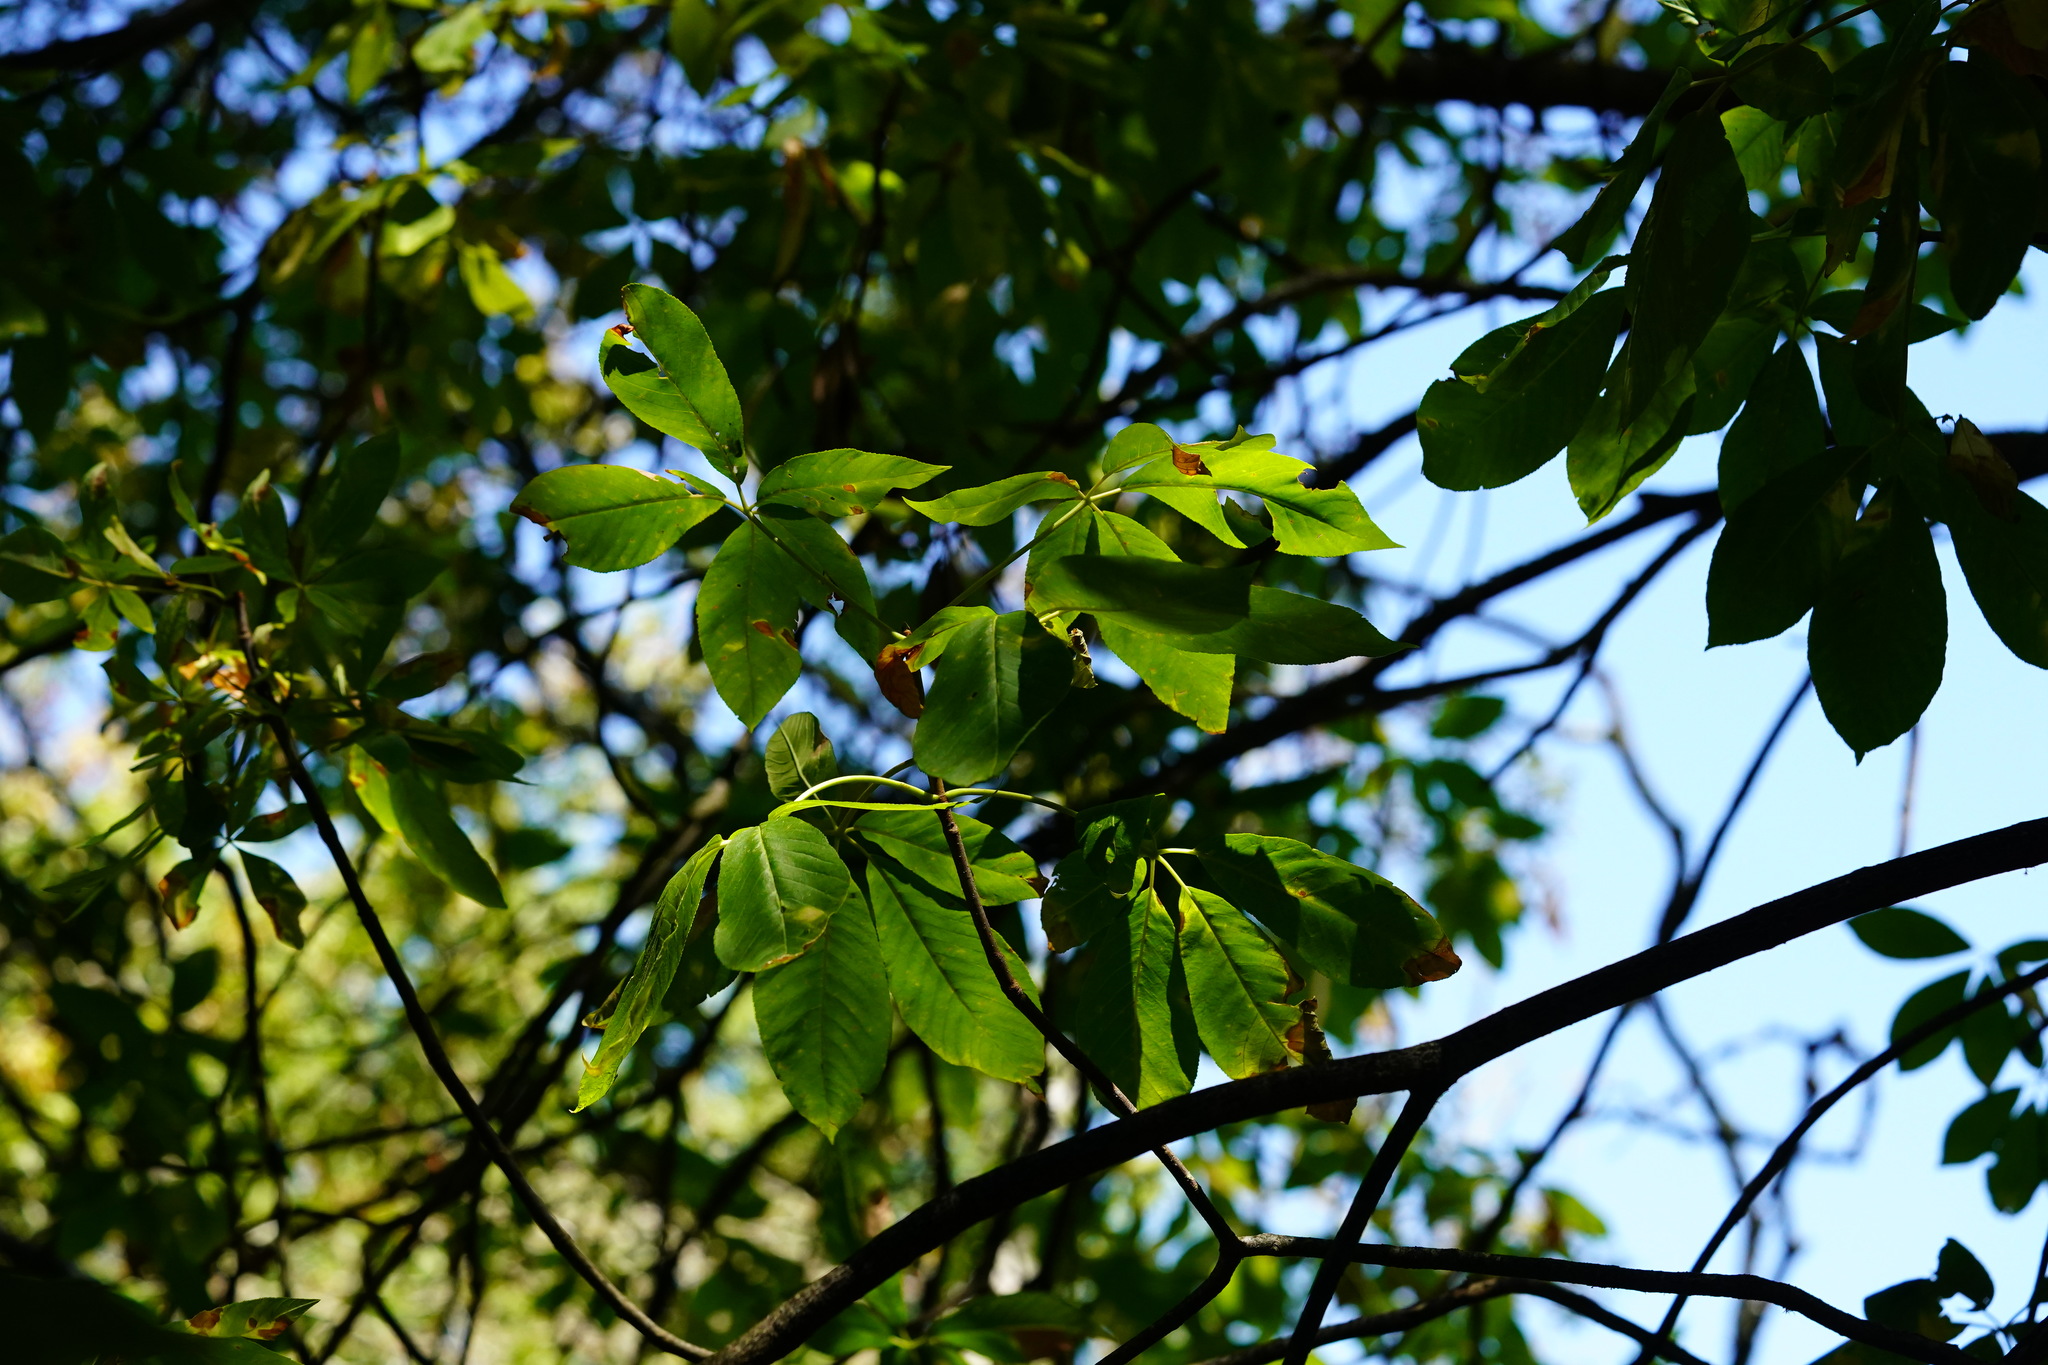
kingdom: Plantae
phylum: Tracheophyta
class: Magnoliopsida
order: Sapindales
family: Sapindaceae
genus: Aesculus
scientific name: Aesculus californica
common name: California buckeye
